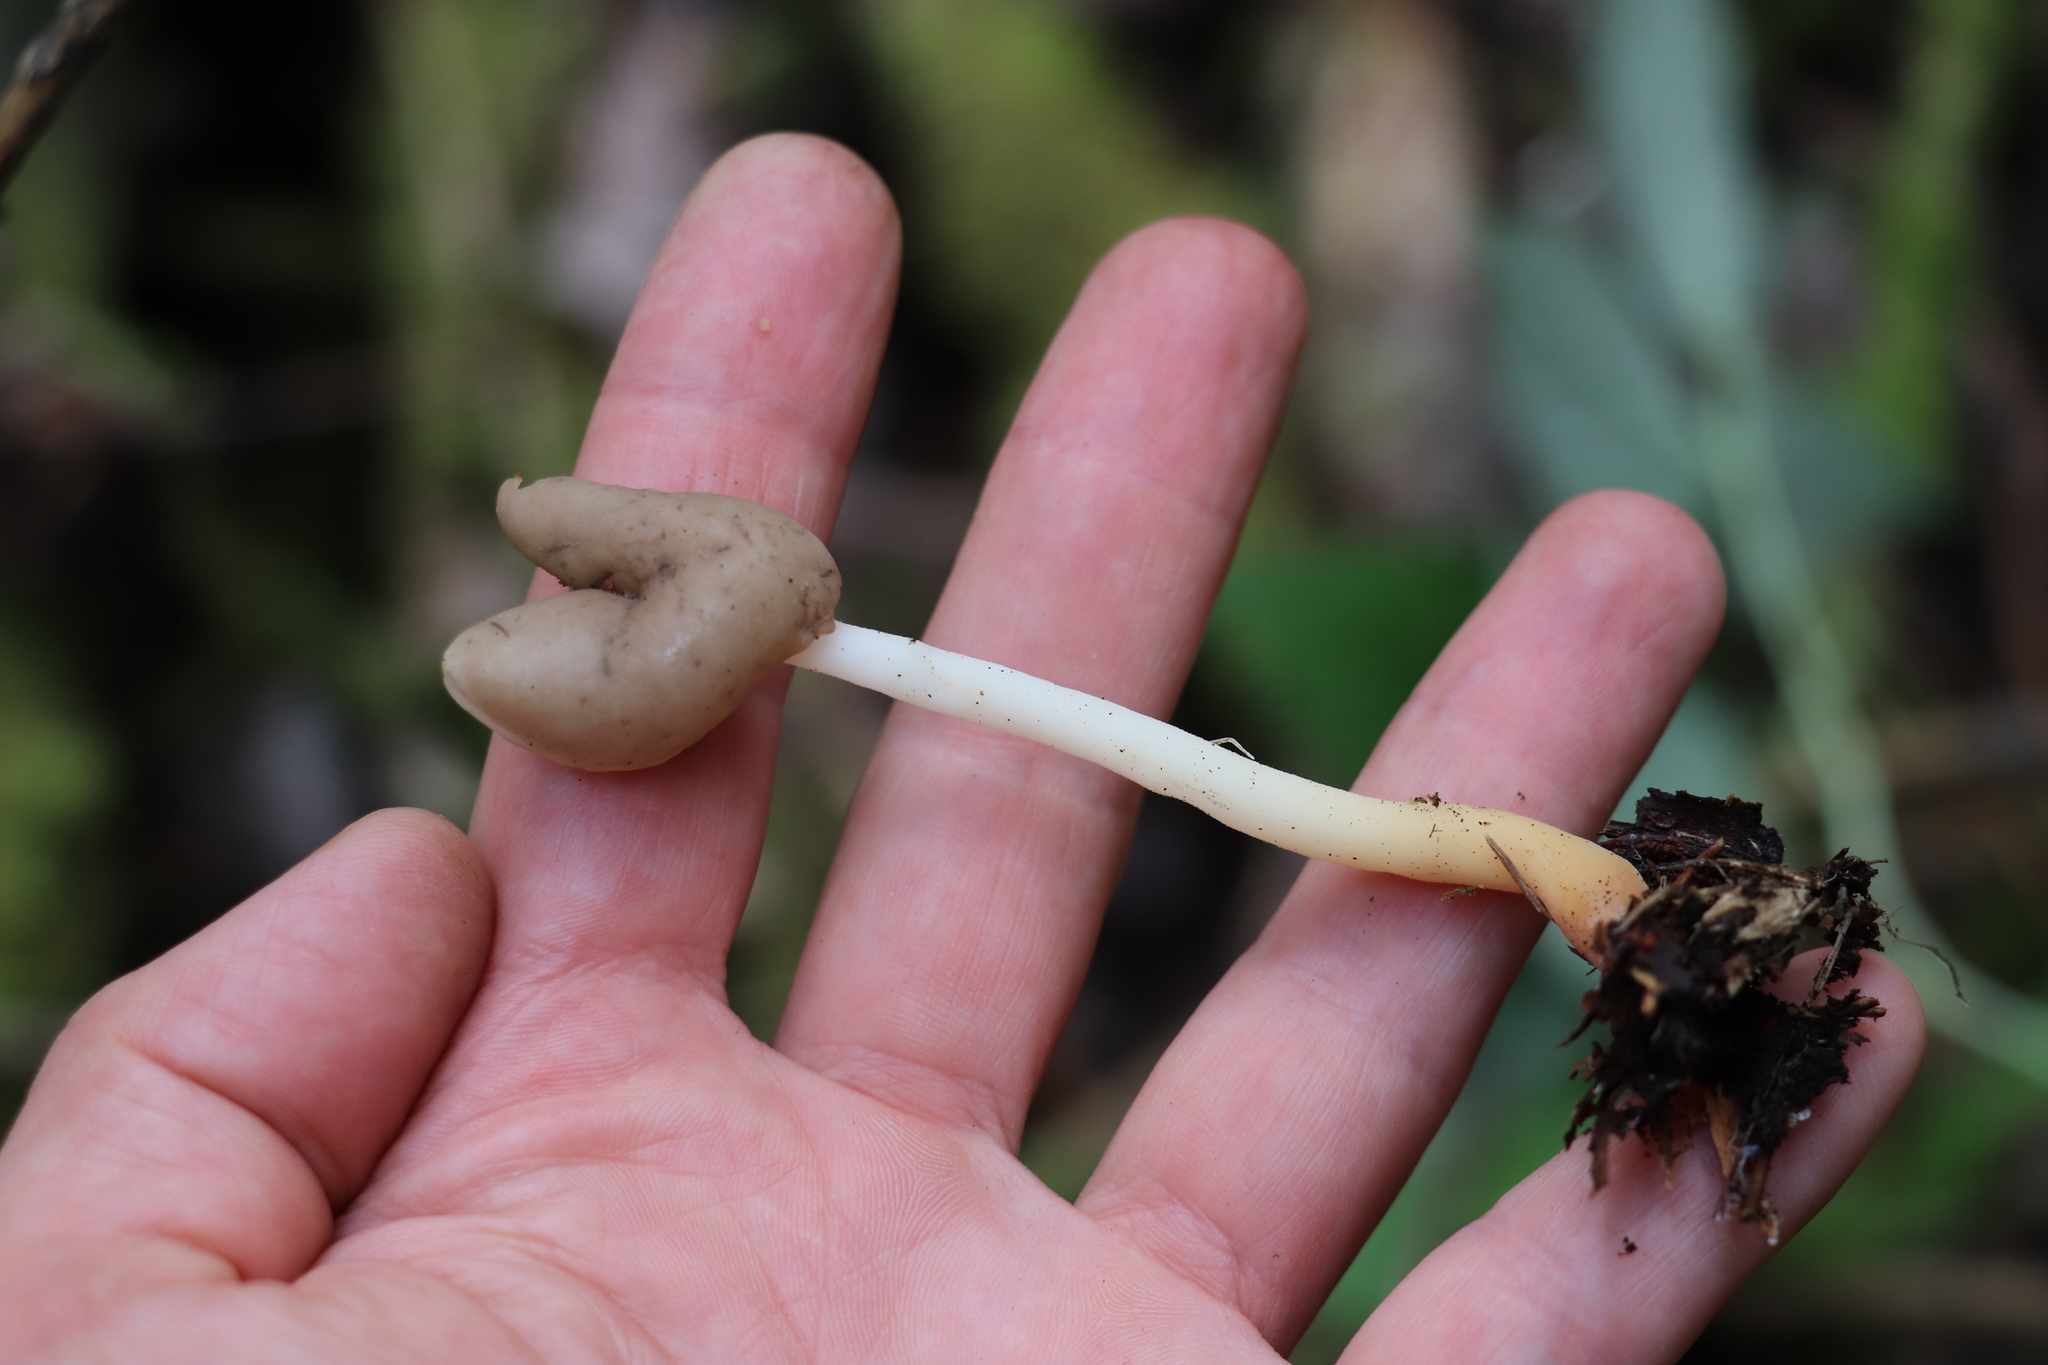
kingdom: Fungi
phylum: Ascomycota
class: Pezizomycetes
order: Pezizales
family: Helvellaceae
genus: Helvella
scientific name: Helvella elastica
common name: Elastic saddle
